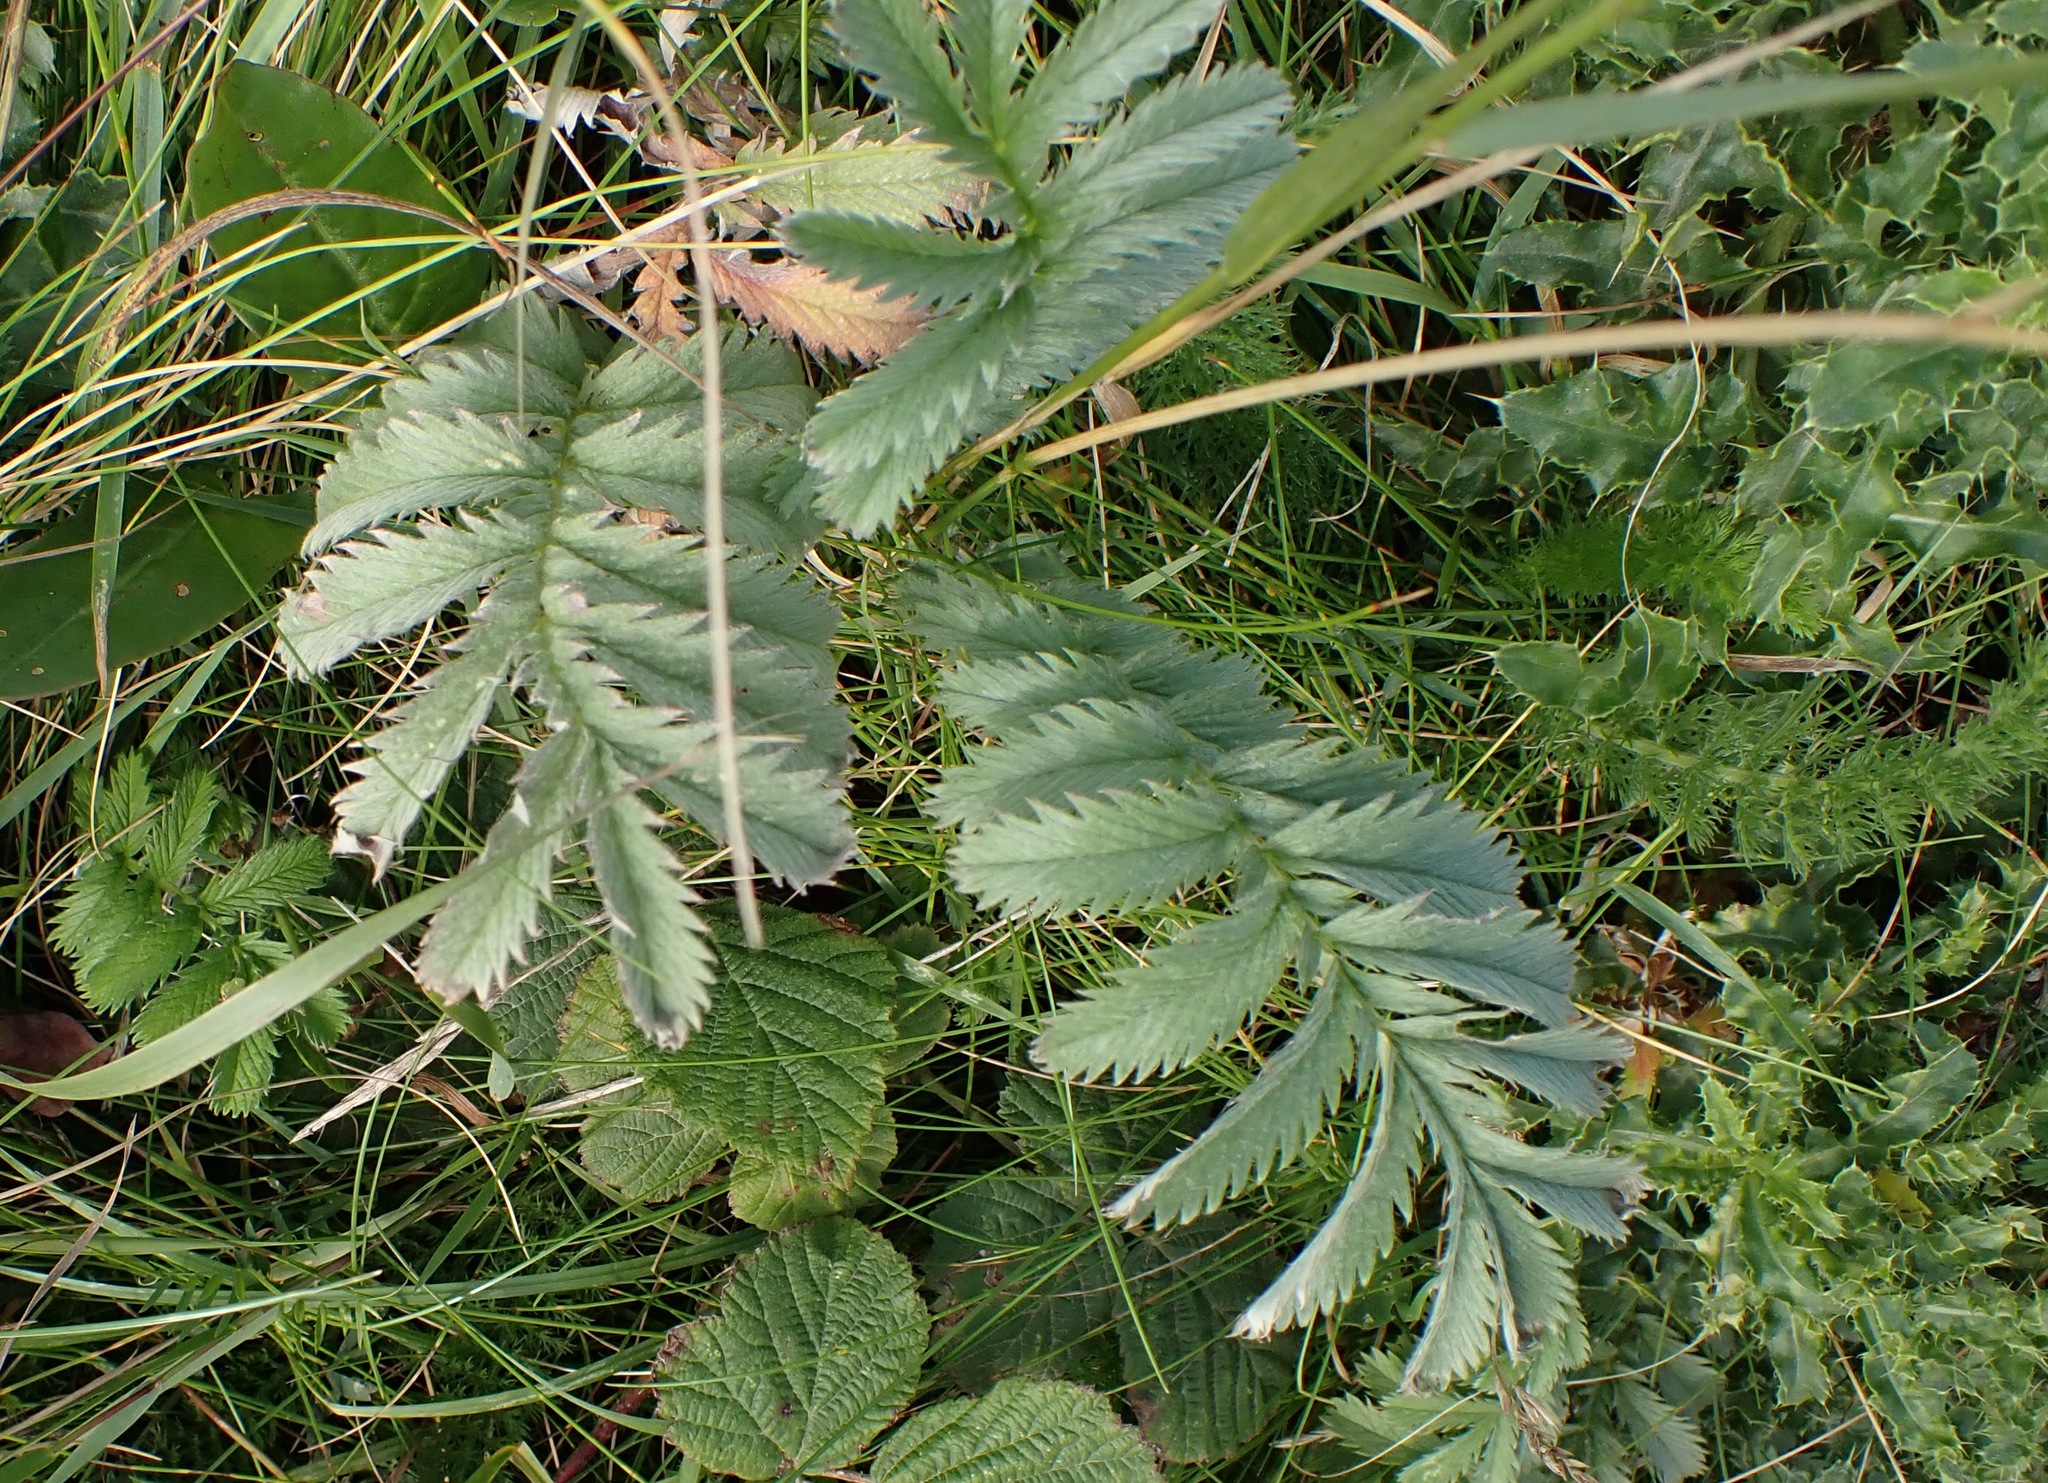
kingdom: Plantae
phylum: Tracheophyta
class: Magnoliopsida
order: Rosales
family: Rosaceae
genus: Argentina
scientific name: Argentina anserina
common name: Common silverweed
